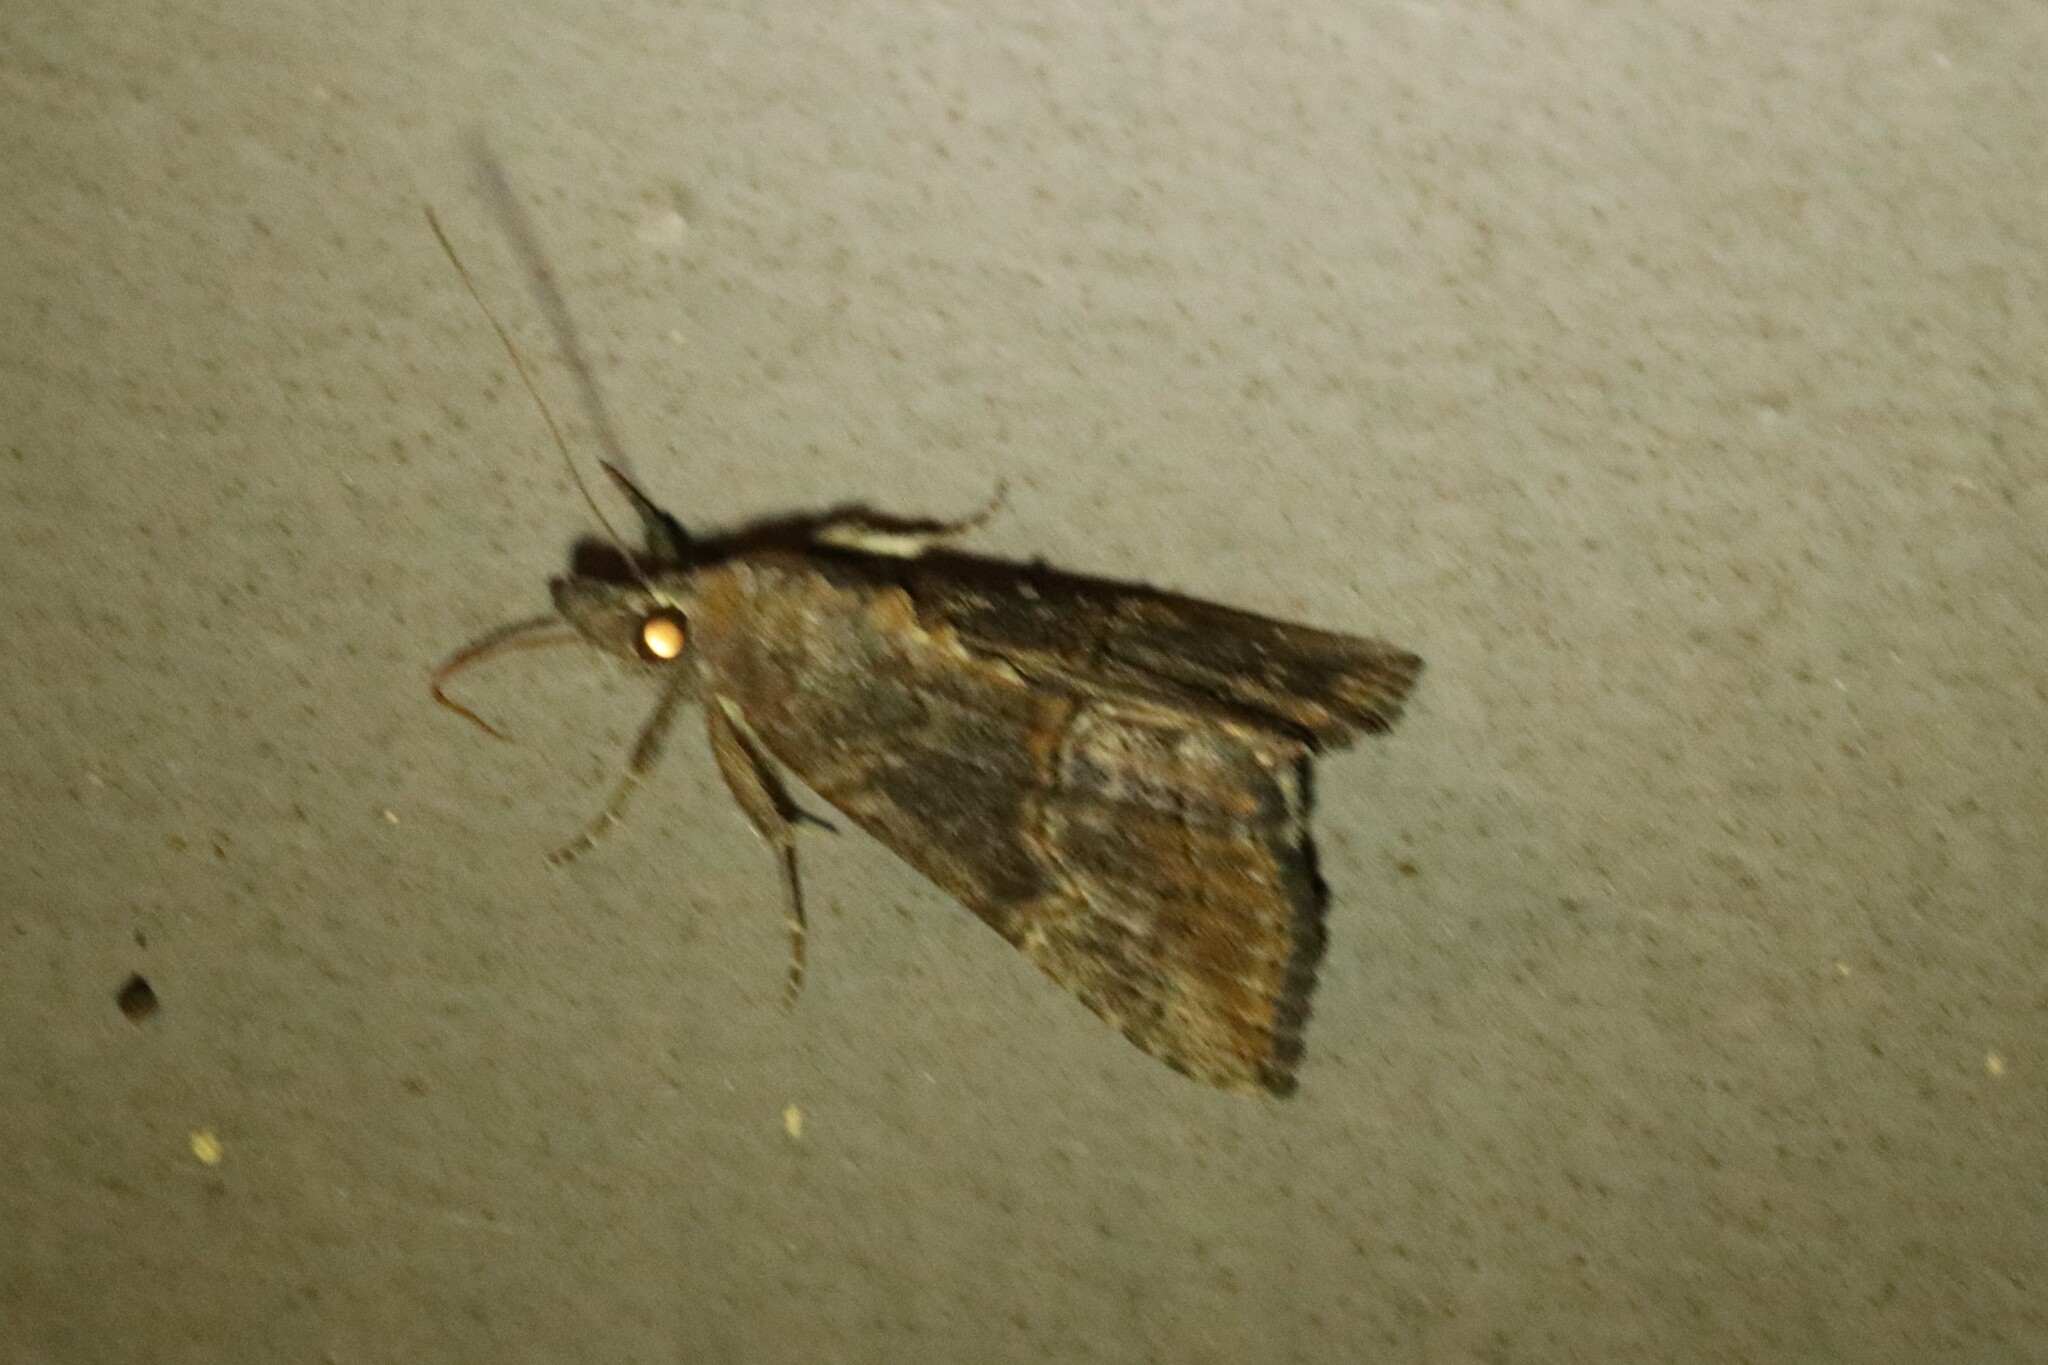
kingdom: Animalia
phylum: Arthropoda
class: Insecta
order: Lepidoptera
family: Erebidae
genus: Hypena
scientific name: Hypena scabra
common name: Green cloverworm
